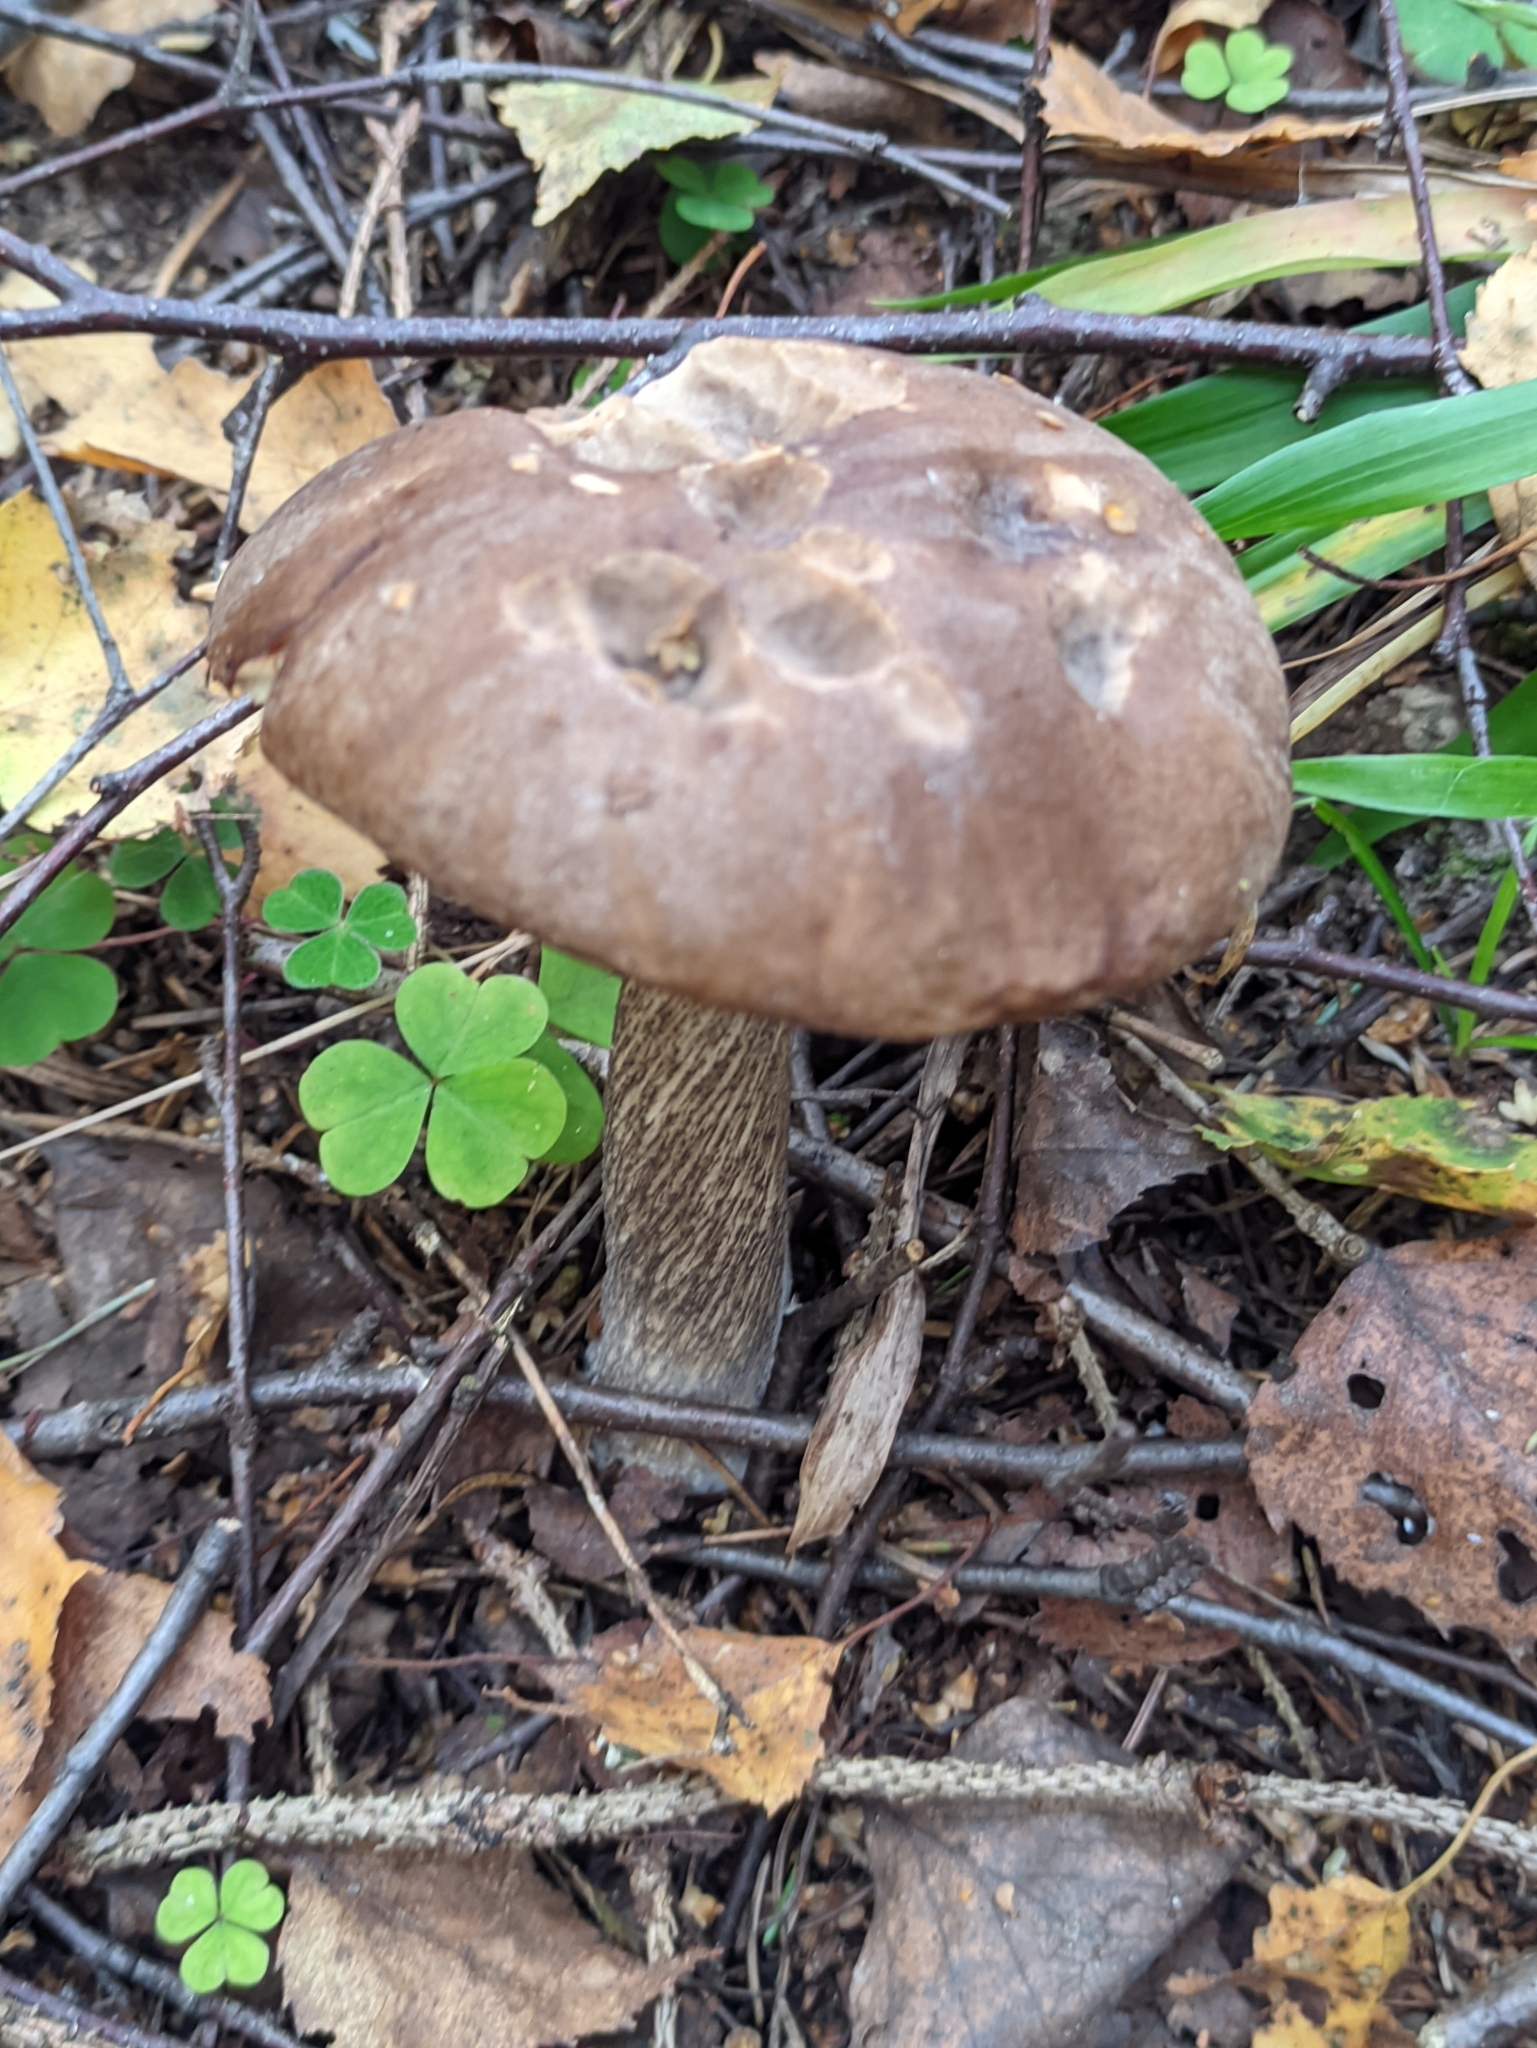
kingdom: Fungi
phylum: Basidiomycota
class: Agaricomycetes
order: Boletales
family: Boletaceae
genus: Leccinum
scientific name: Leccinum scabrum
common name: Blushing bolete
